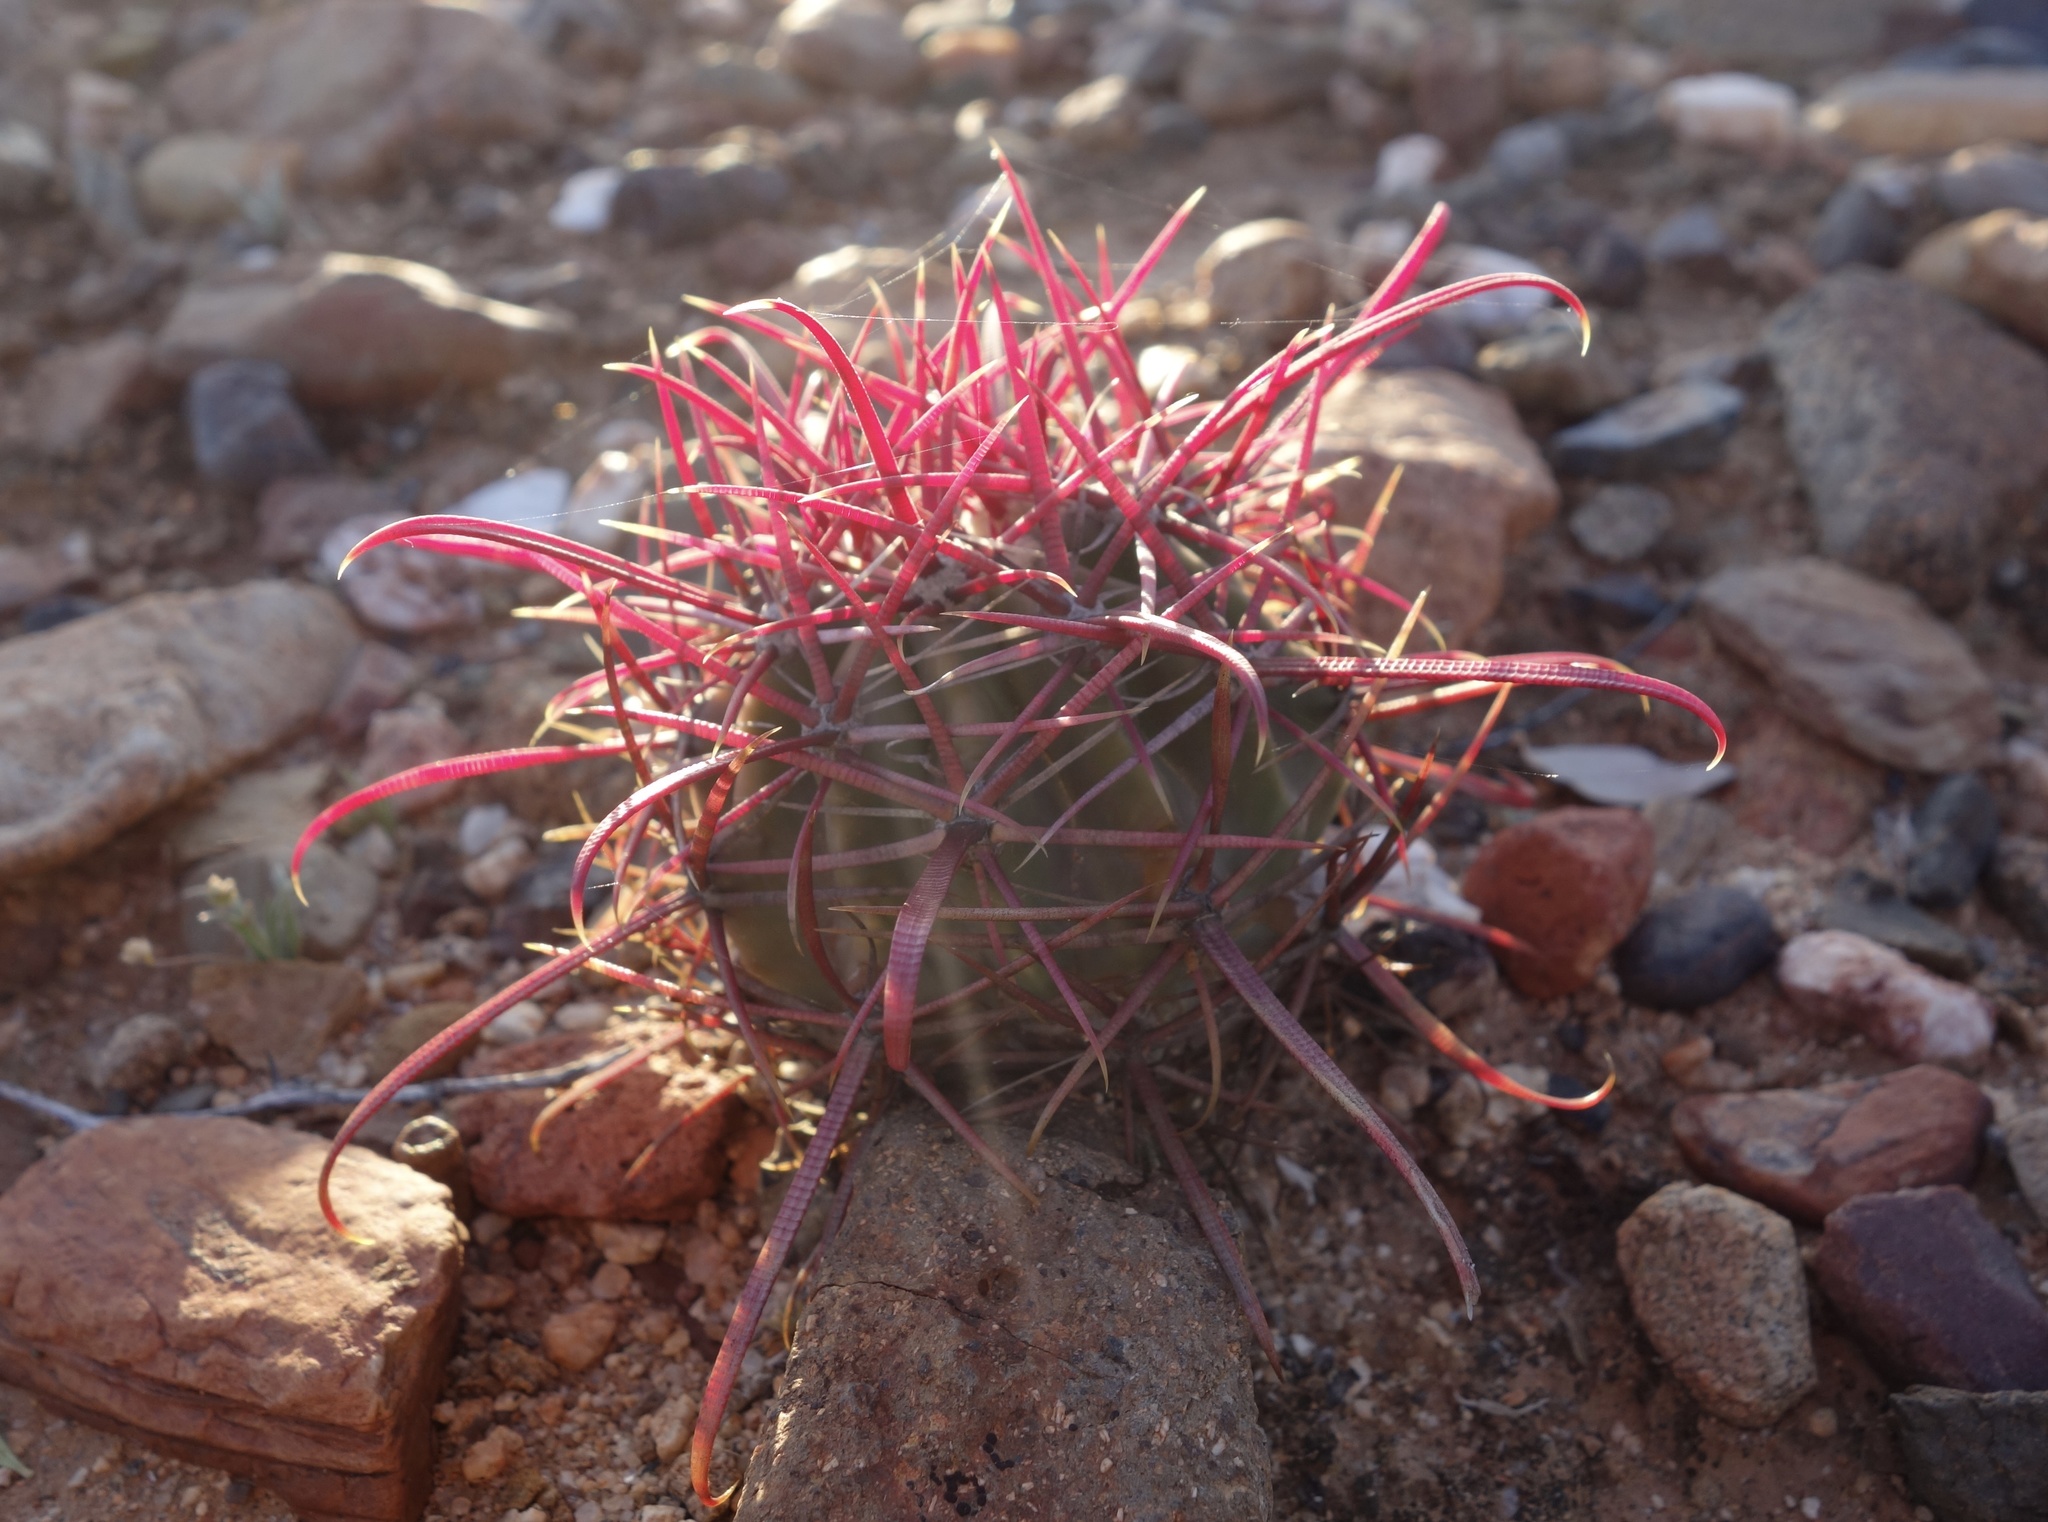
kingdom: Plantae
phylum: Tracheophyta
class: Magnoliopsida
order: Caryophyllales
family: Cactaceae
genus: Ferocactus
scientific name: Ferocactus gracilis
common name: Fire barrel cactus
